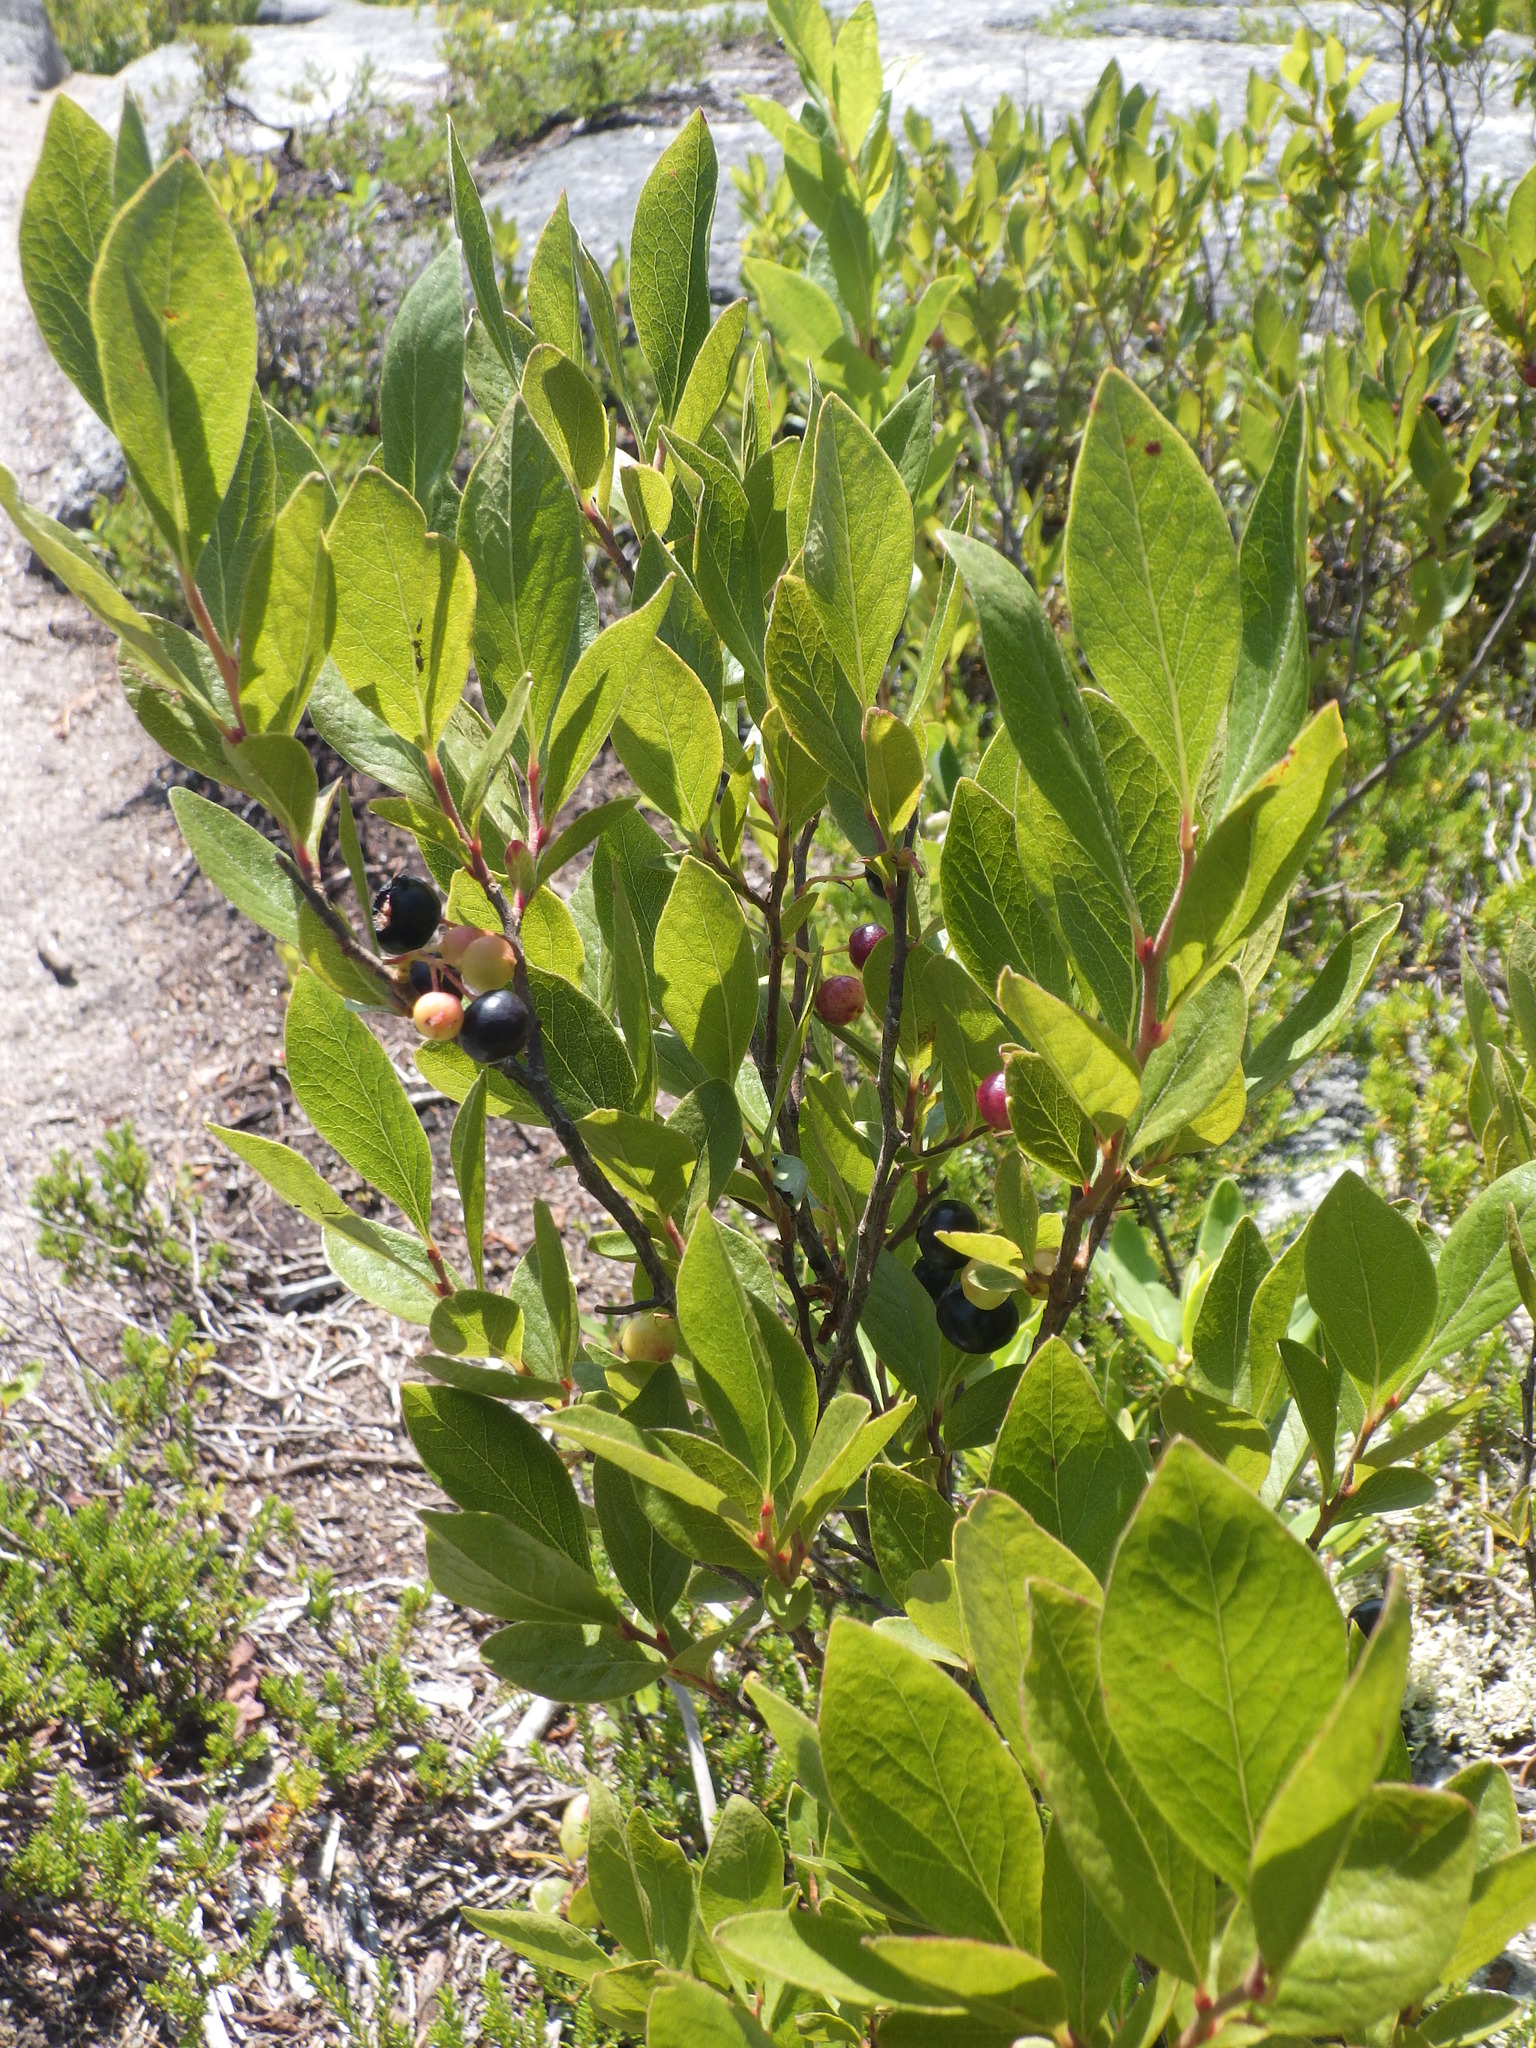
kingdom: Plantae
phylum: Tracheophyta
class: Magnoliopsida
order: Ericales
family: Ericaceae
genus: Gaylussacia
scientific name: Gaylussacia baccata
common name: Black huckleberry
